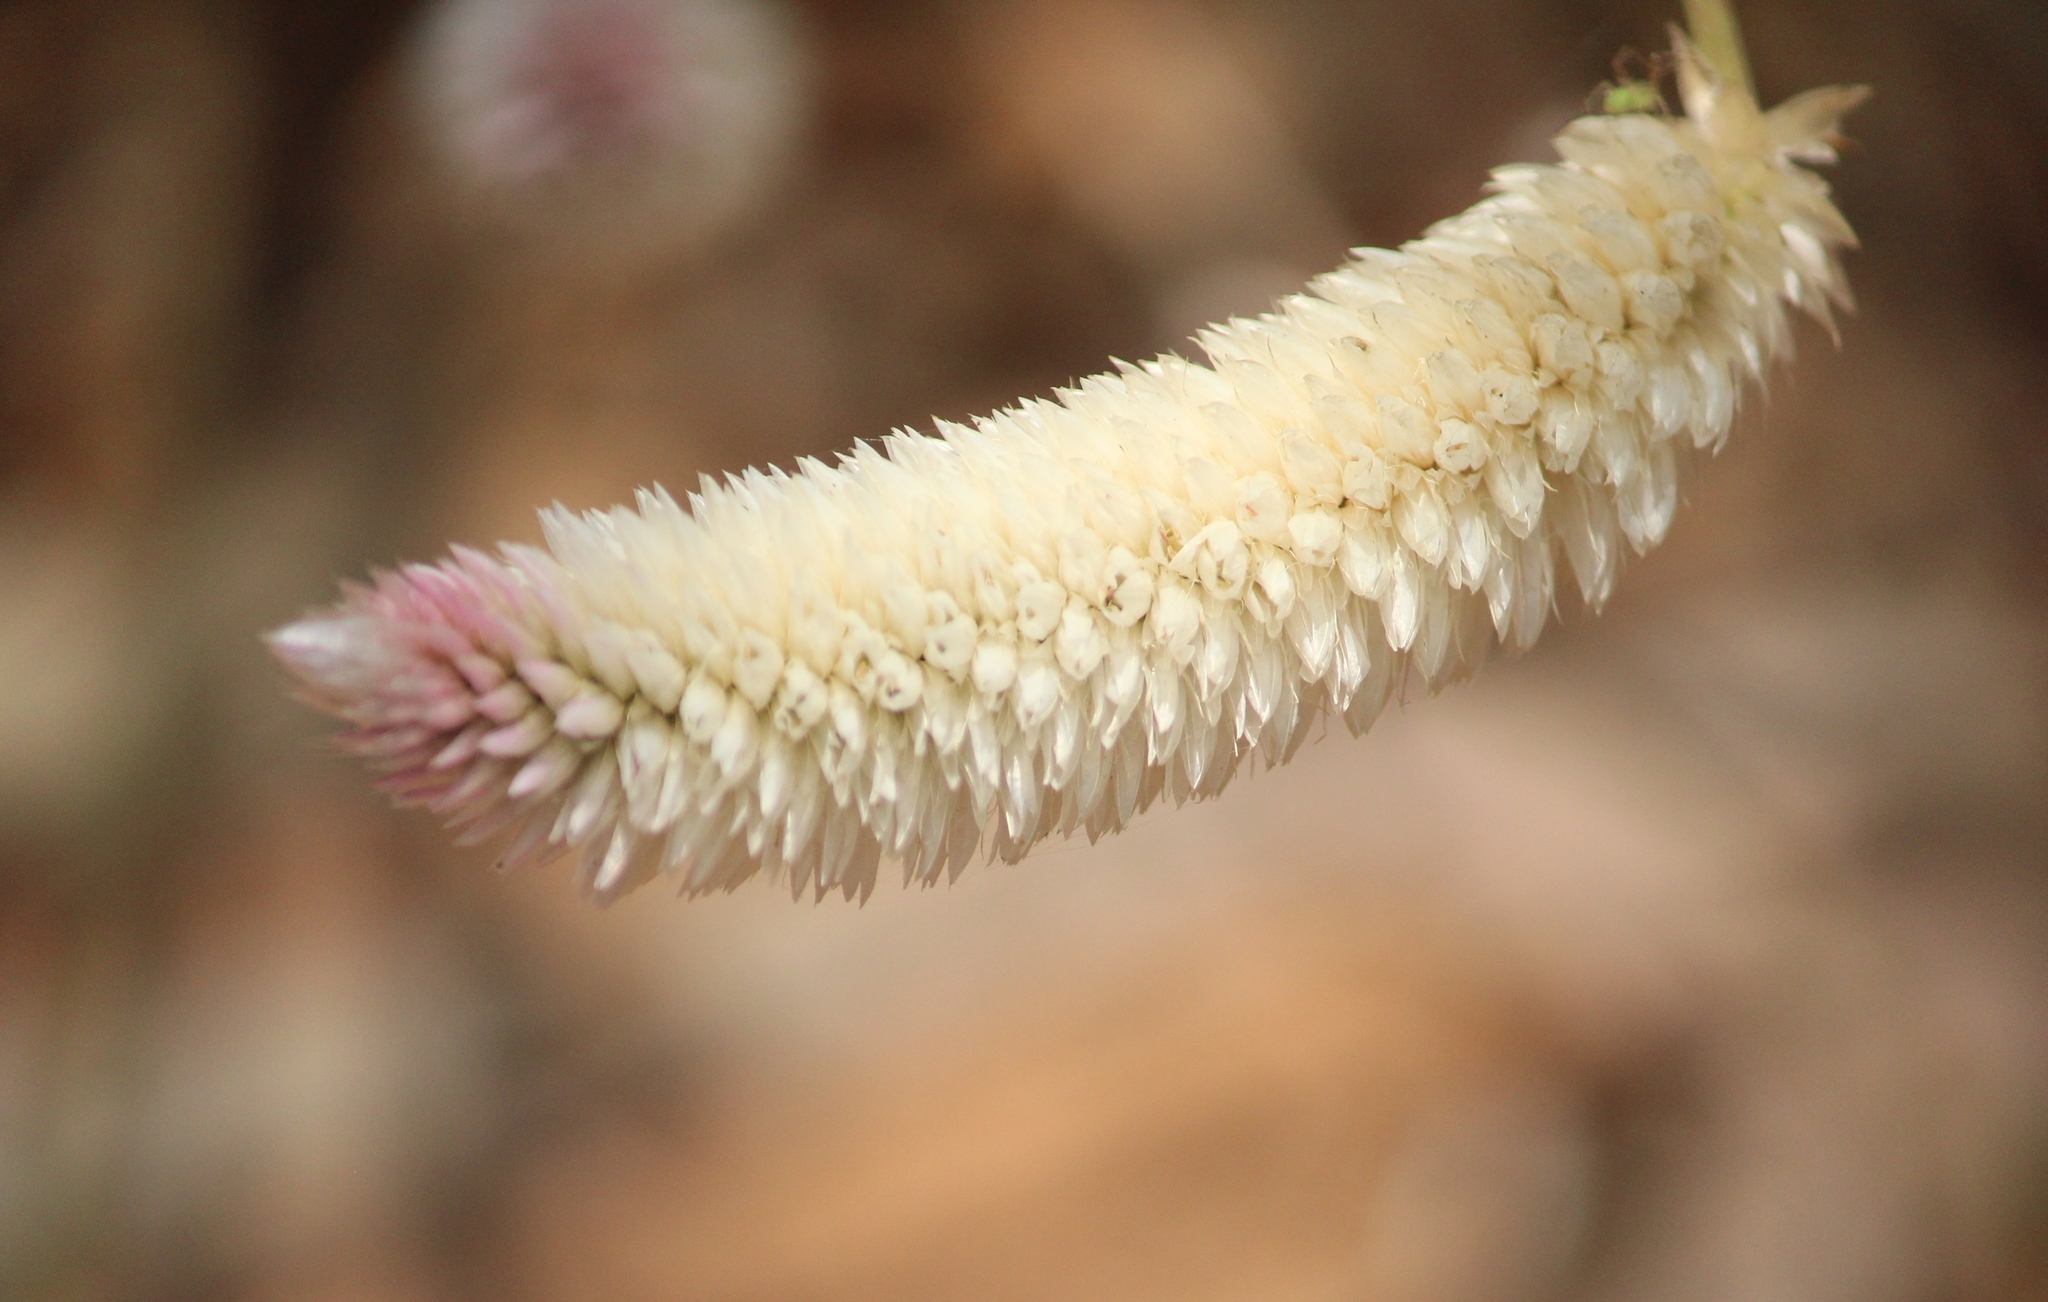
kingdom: Plantae
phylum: Tracheophyta
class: Magnoliopsida
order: Caryophyllales
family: Amaranthaceae
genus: Celosia
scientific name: Celosia argentea
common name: Feather cockscomb
